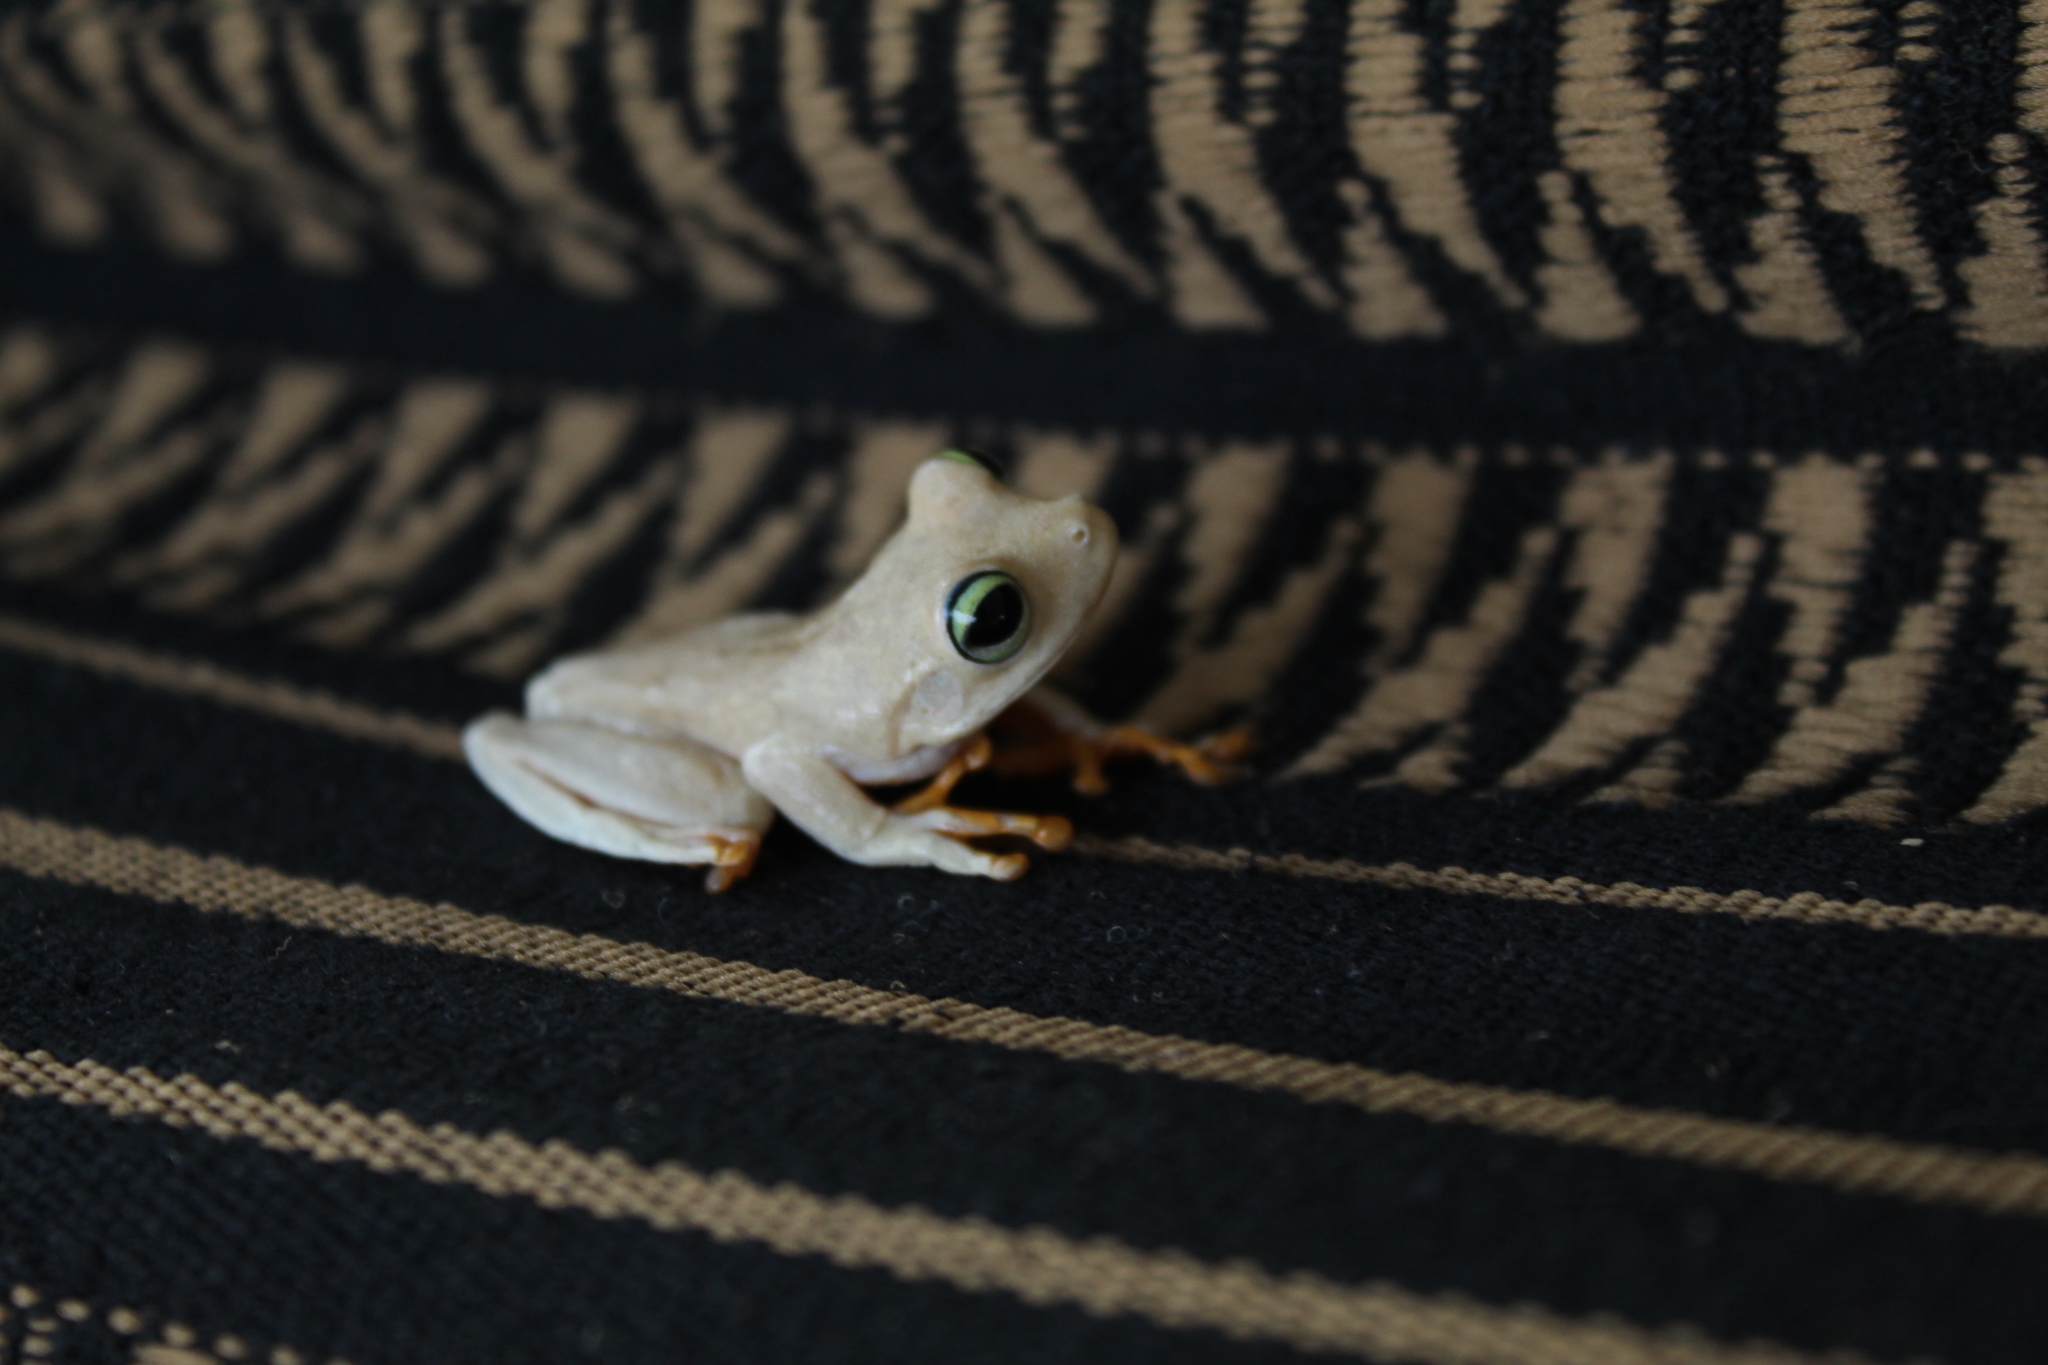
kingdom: Animalia
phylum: Chordata
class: Amphibia
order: Anura
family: Hylidae
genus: Boana
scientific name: Boana platanera
